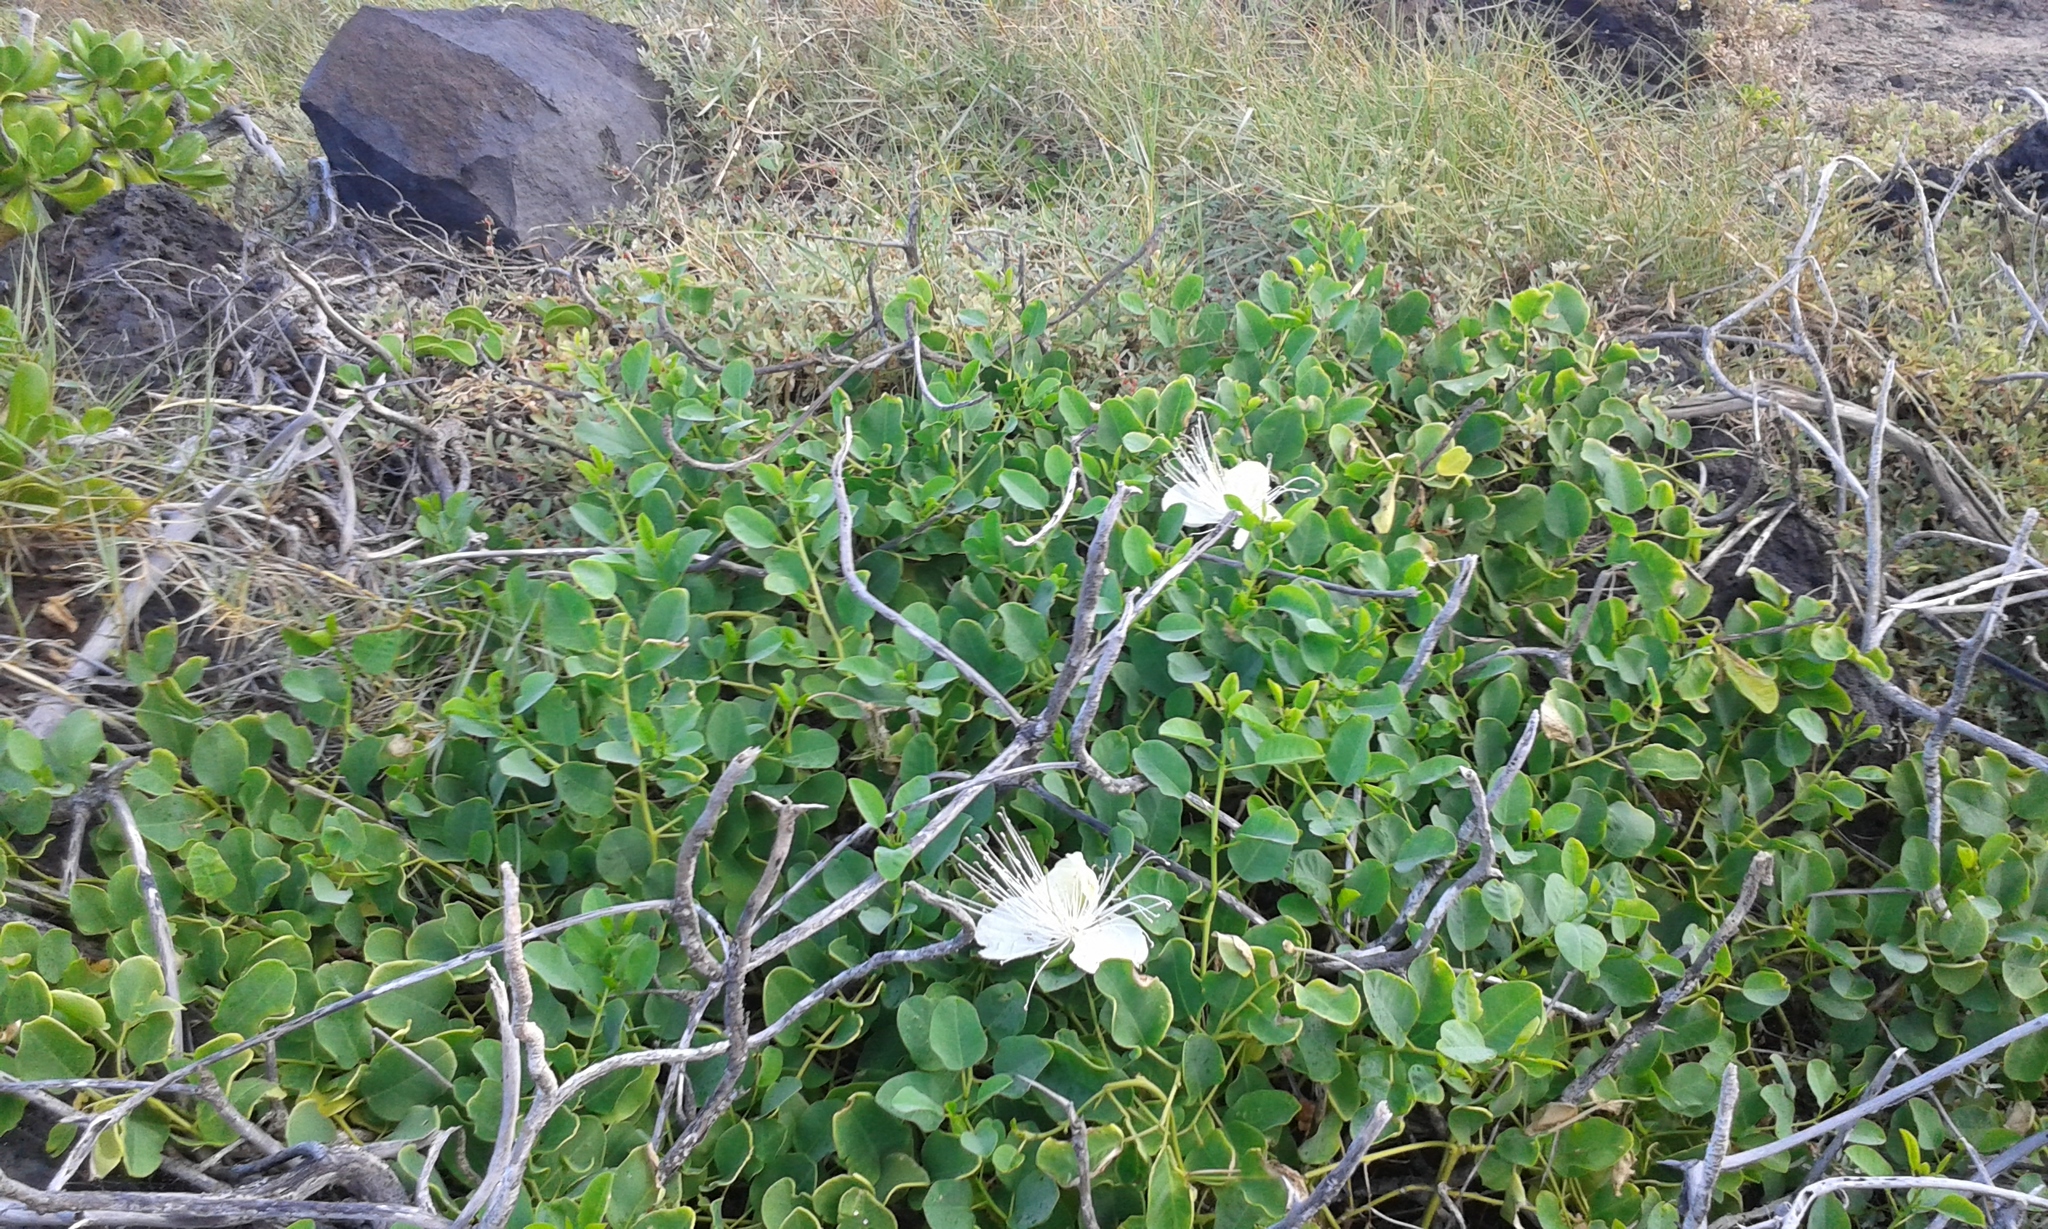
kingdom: Plantae
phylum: Tracheophyta
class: Magnoliopsida
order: Brassicales
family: Capparaceae
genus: Capparis
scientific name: Capparis spinosa
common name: Caper
